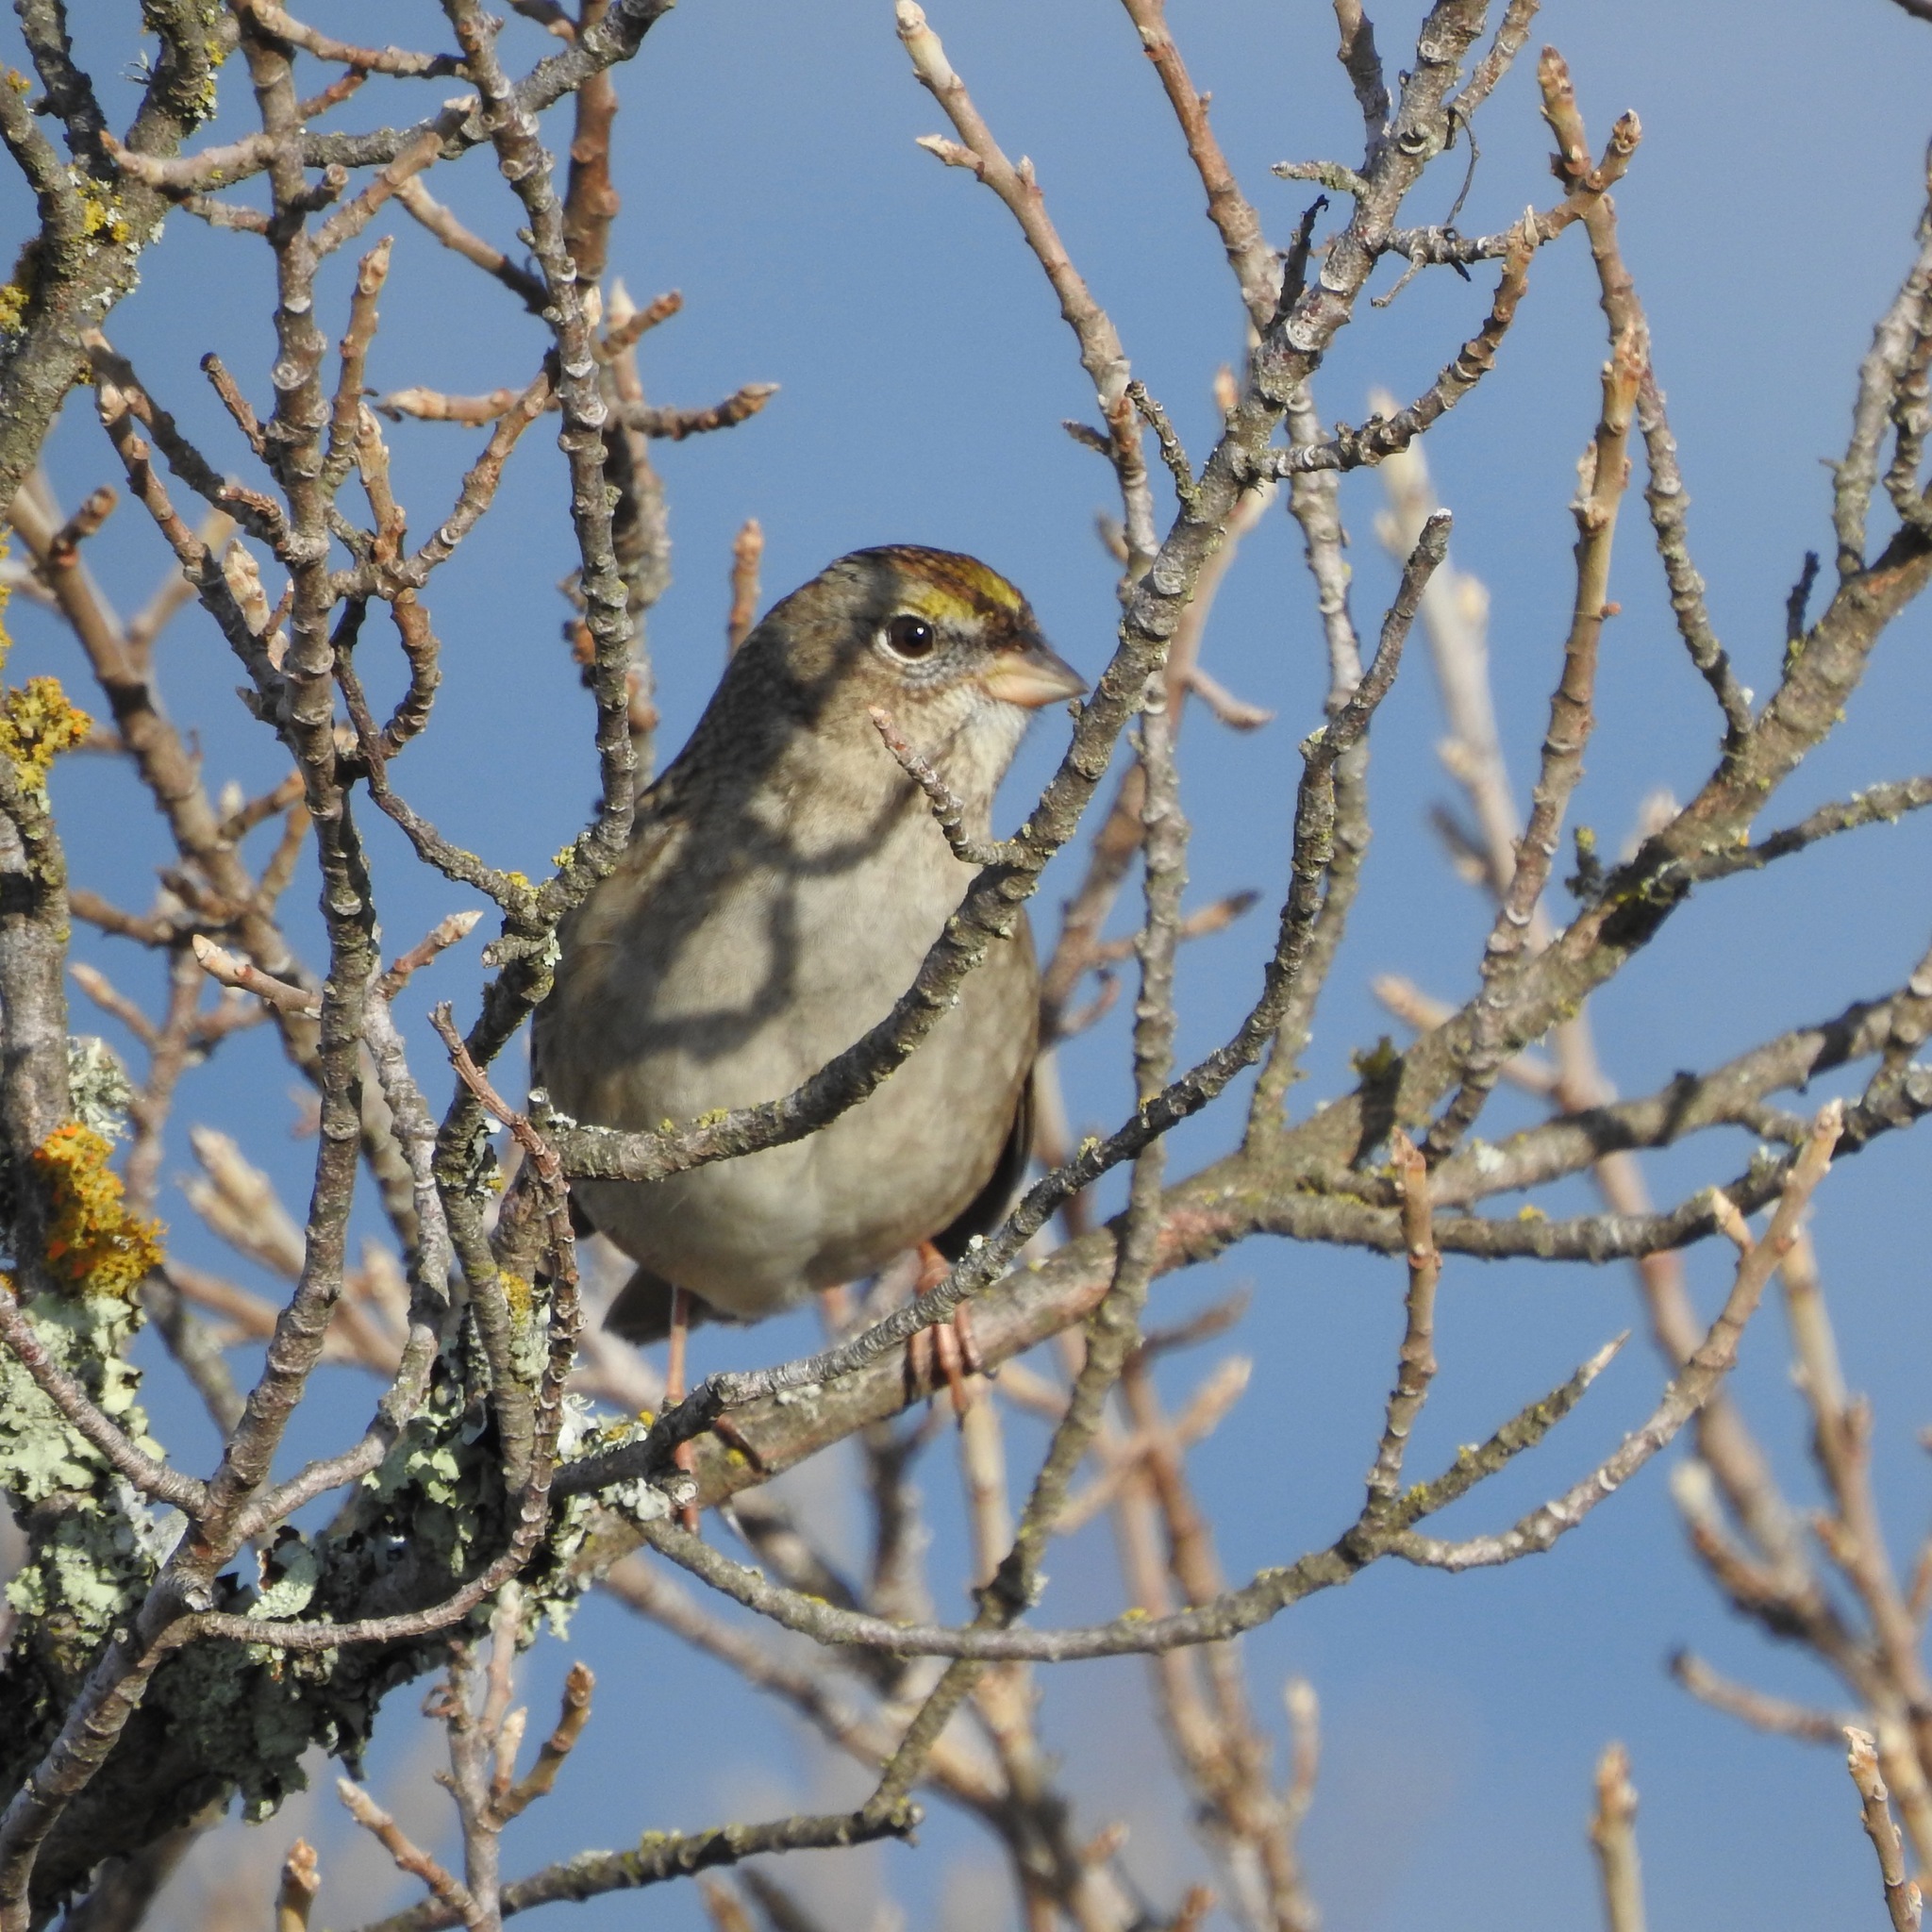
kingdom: Animalia
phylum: Chordata
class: Aves
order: Passeriformes
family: Passerellidae
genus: Zonotrichia
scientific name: Zonotrichia atricapilla
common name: Golden-crowned sparrow
